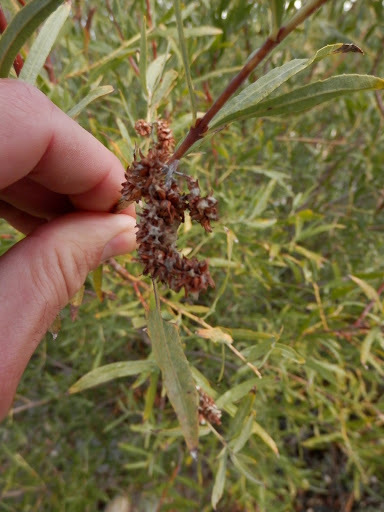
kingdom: Plantae
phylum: Tracheophyta
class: Magnoliopsida
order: Malpighiales
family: Salicaceae
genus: Salix
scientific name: Salix exigua
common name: Coyote willow
